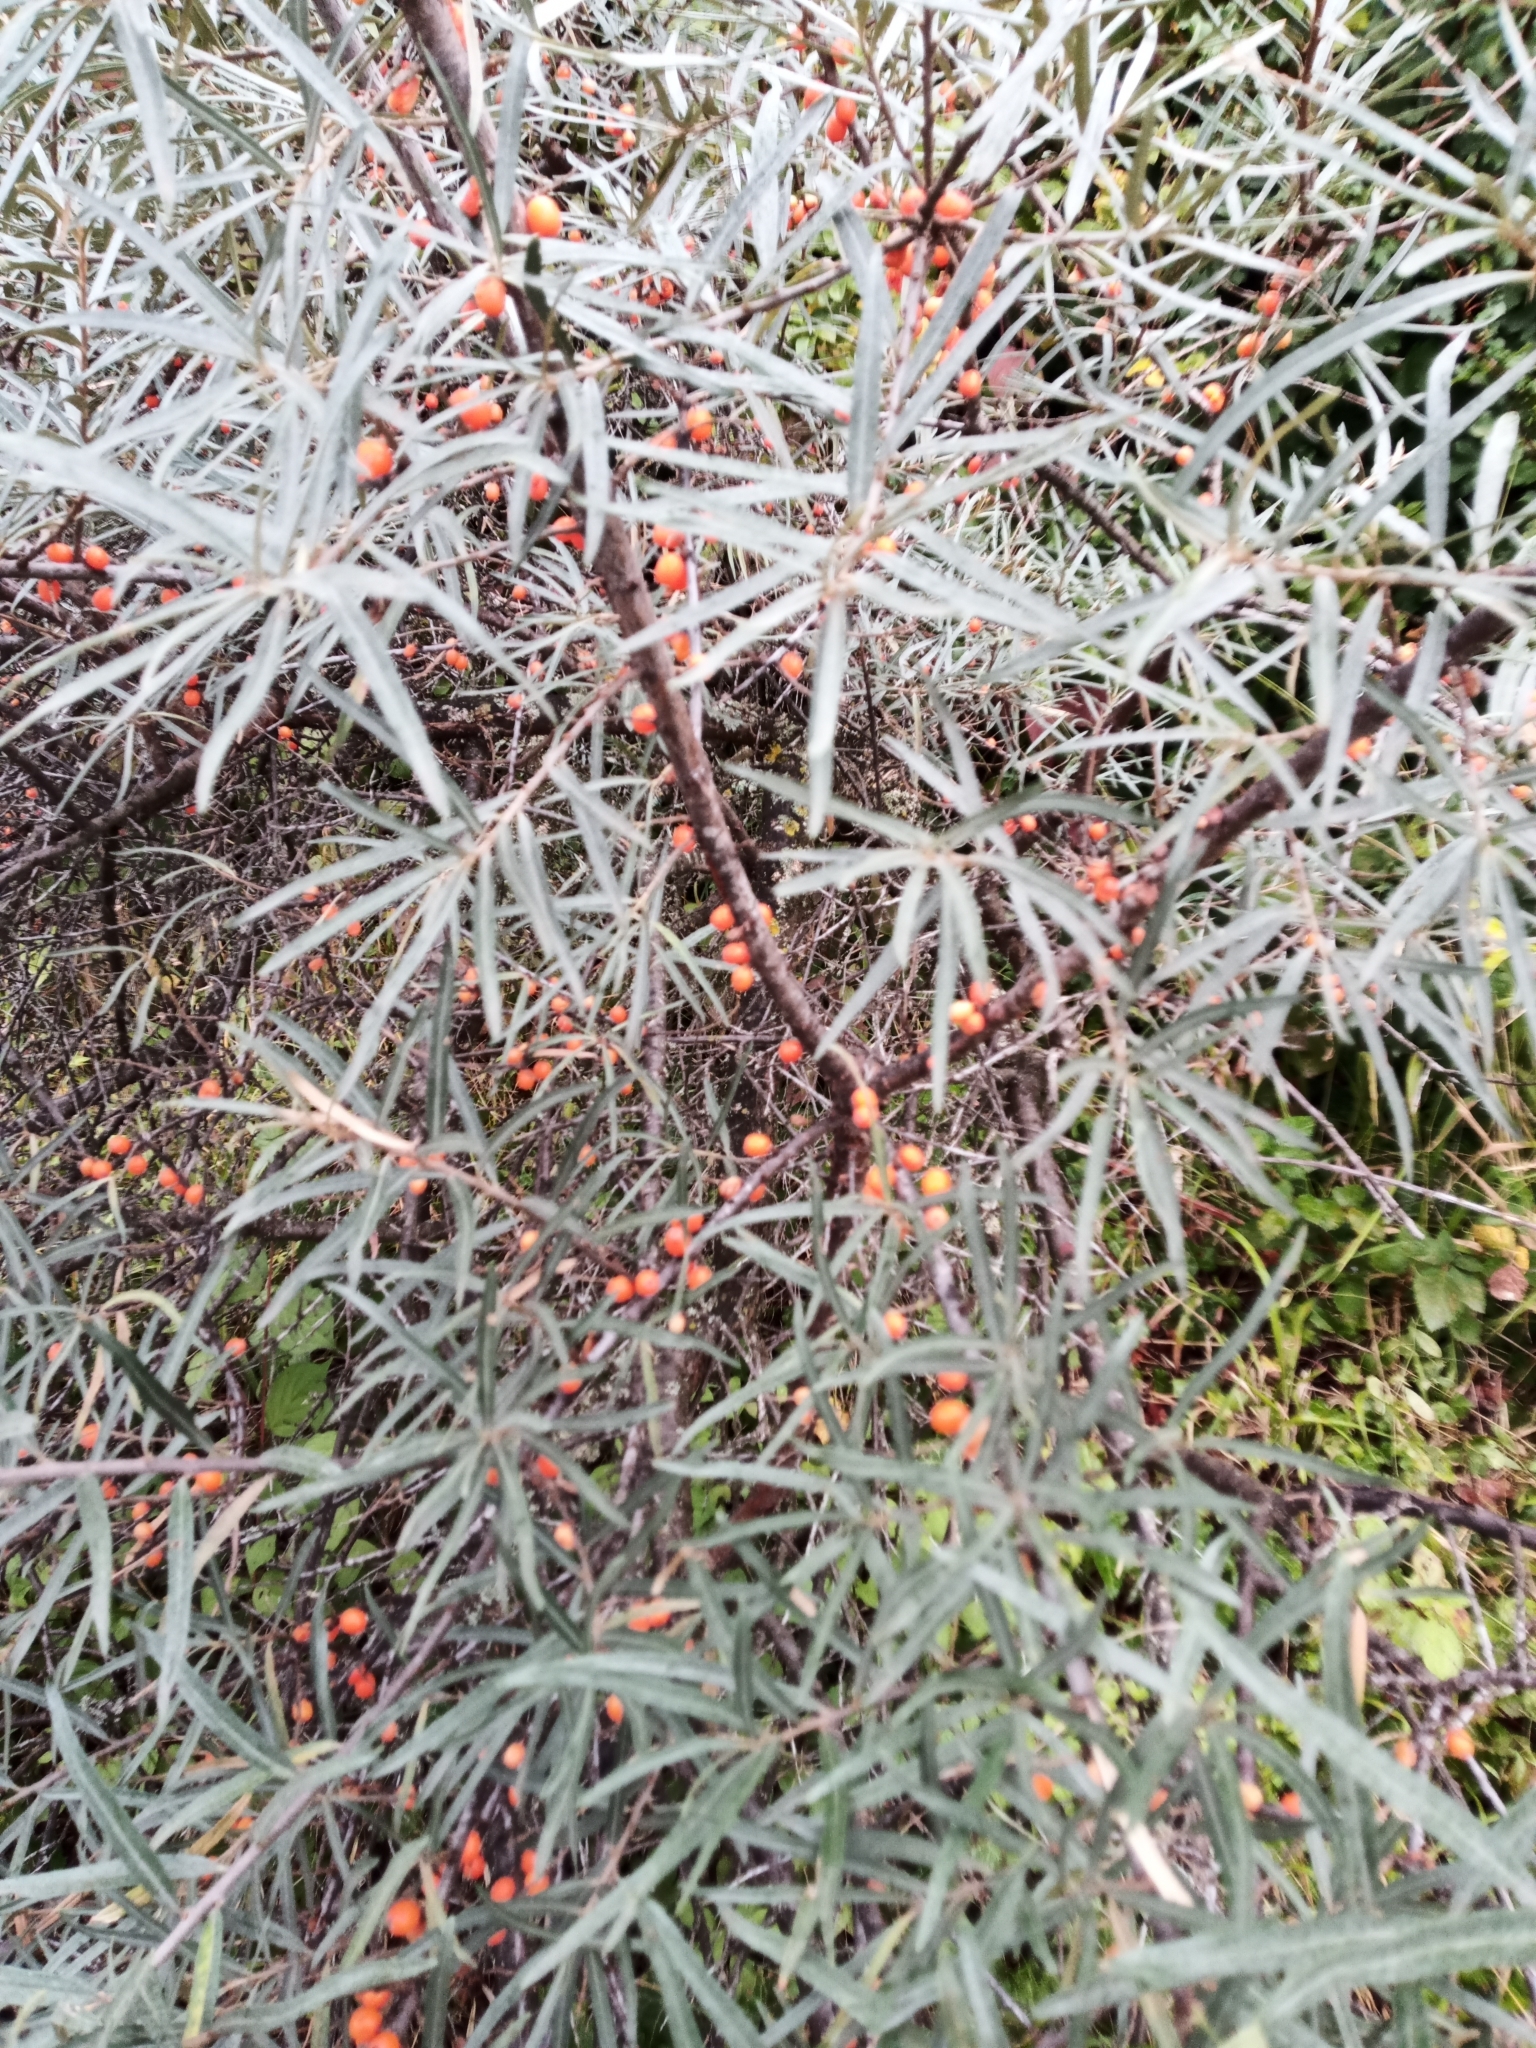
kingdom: Plantae
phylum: Tracheophyta
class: Magnoliopsida
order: Rosales
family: Elaeagnaceae
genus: Hippophae
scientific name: Hippophae rhamnoides
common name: Sea-buckthorn
